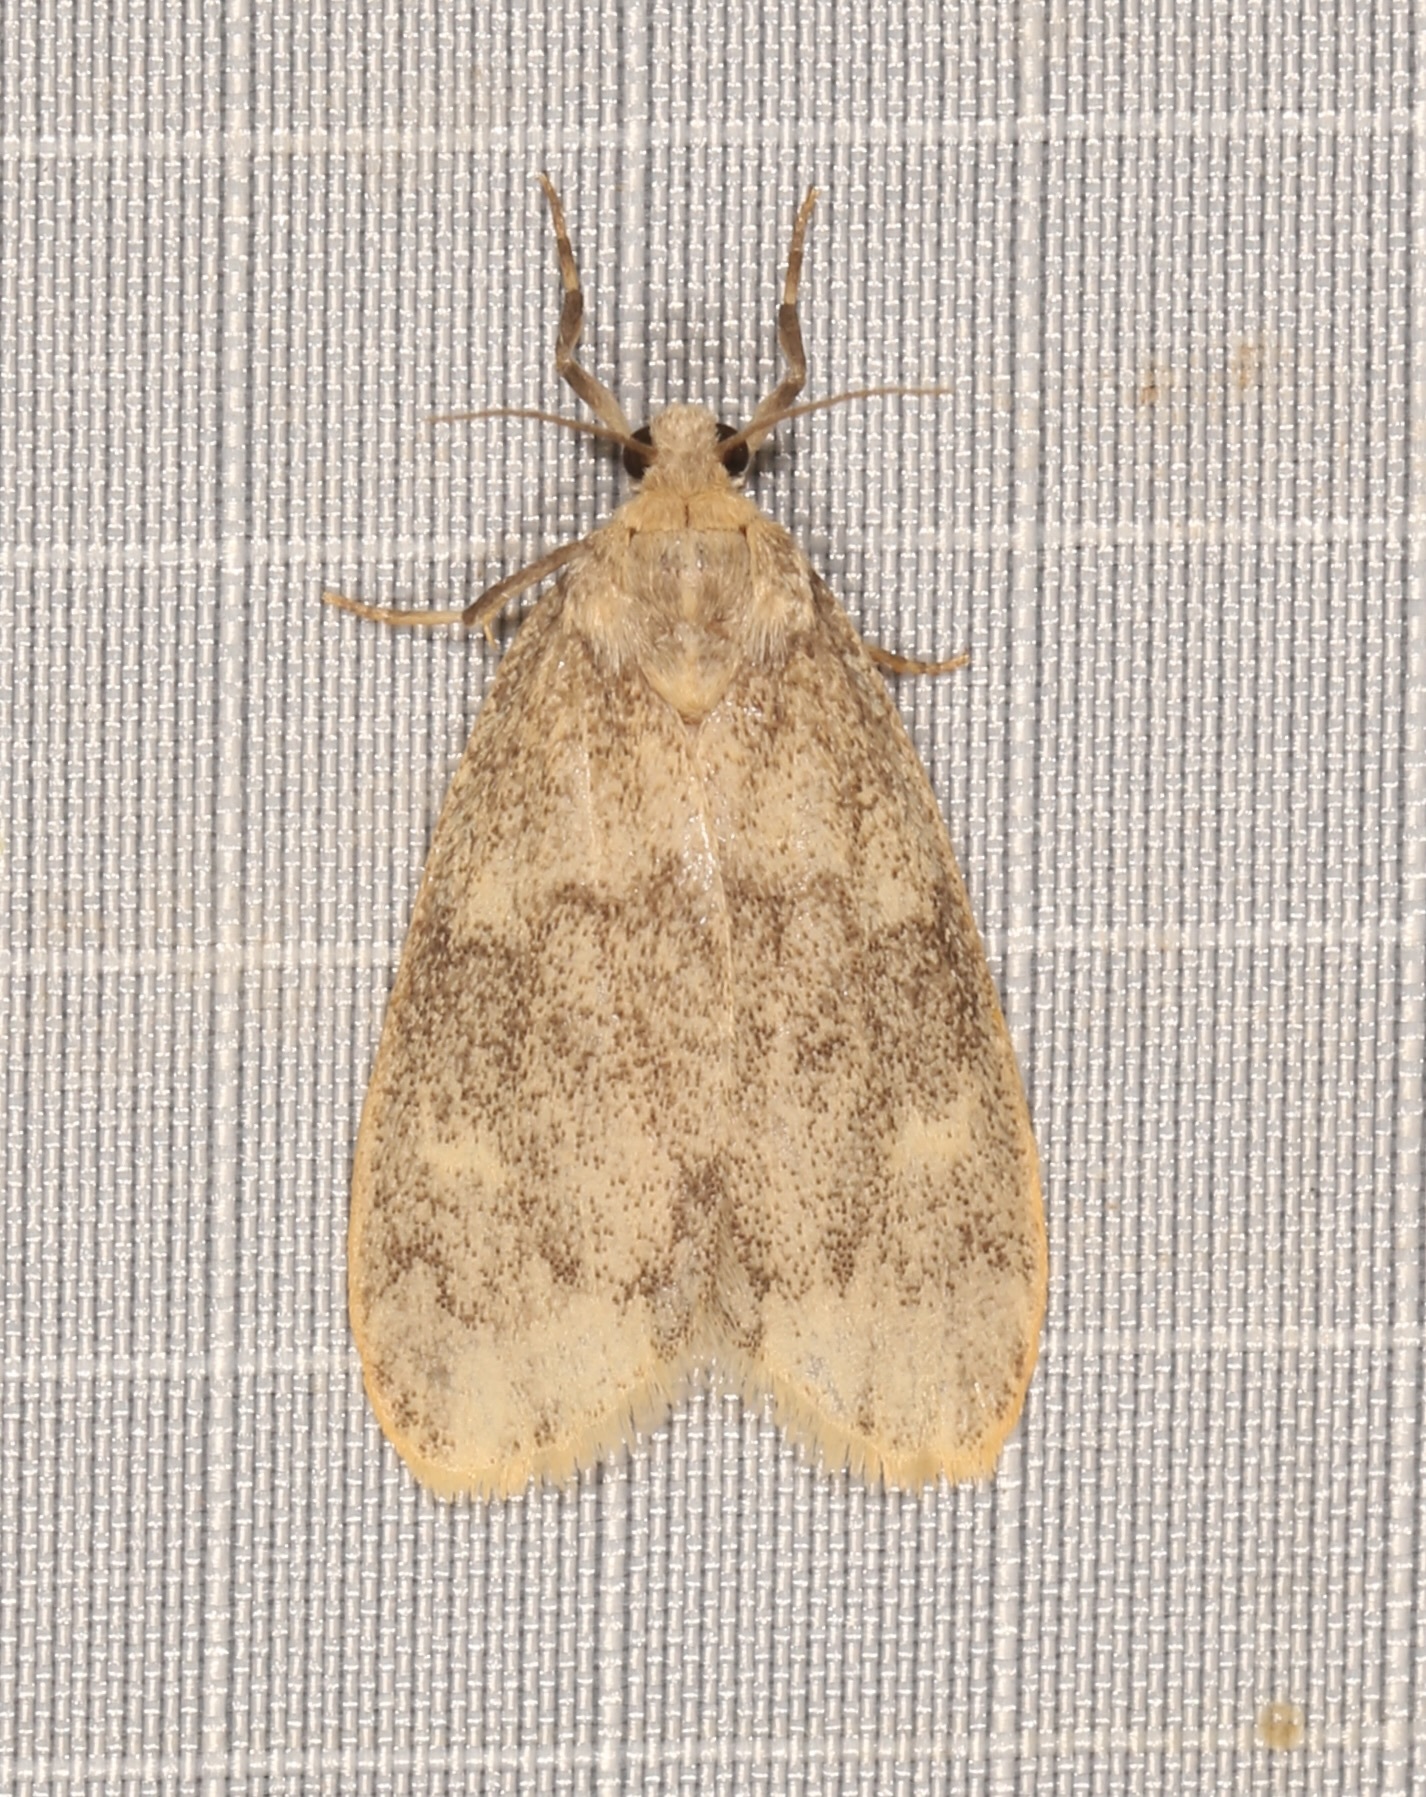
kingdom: Animalia
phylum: Arthropoda
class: Insecta
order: Lepidoptera
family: Erebidae
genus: Bruceia
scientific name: Bruceia pulverina
